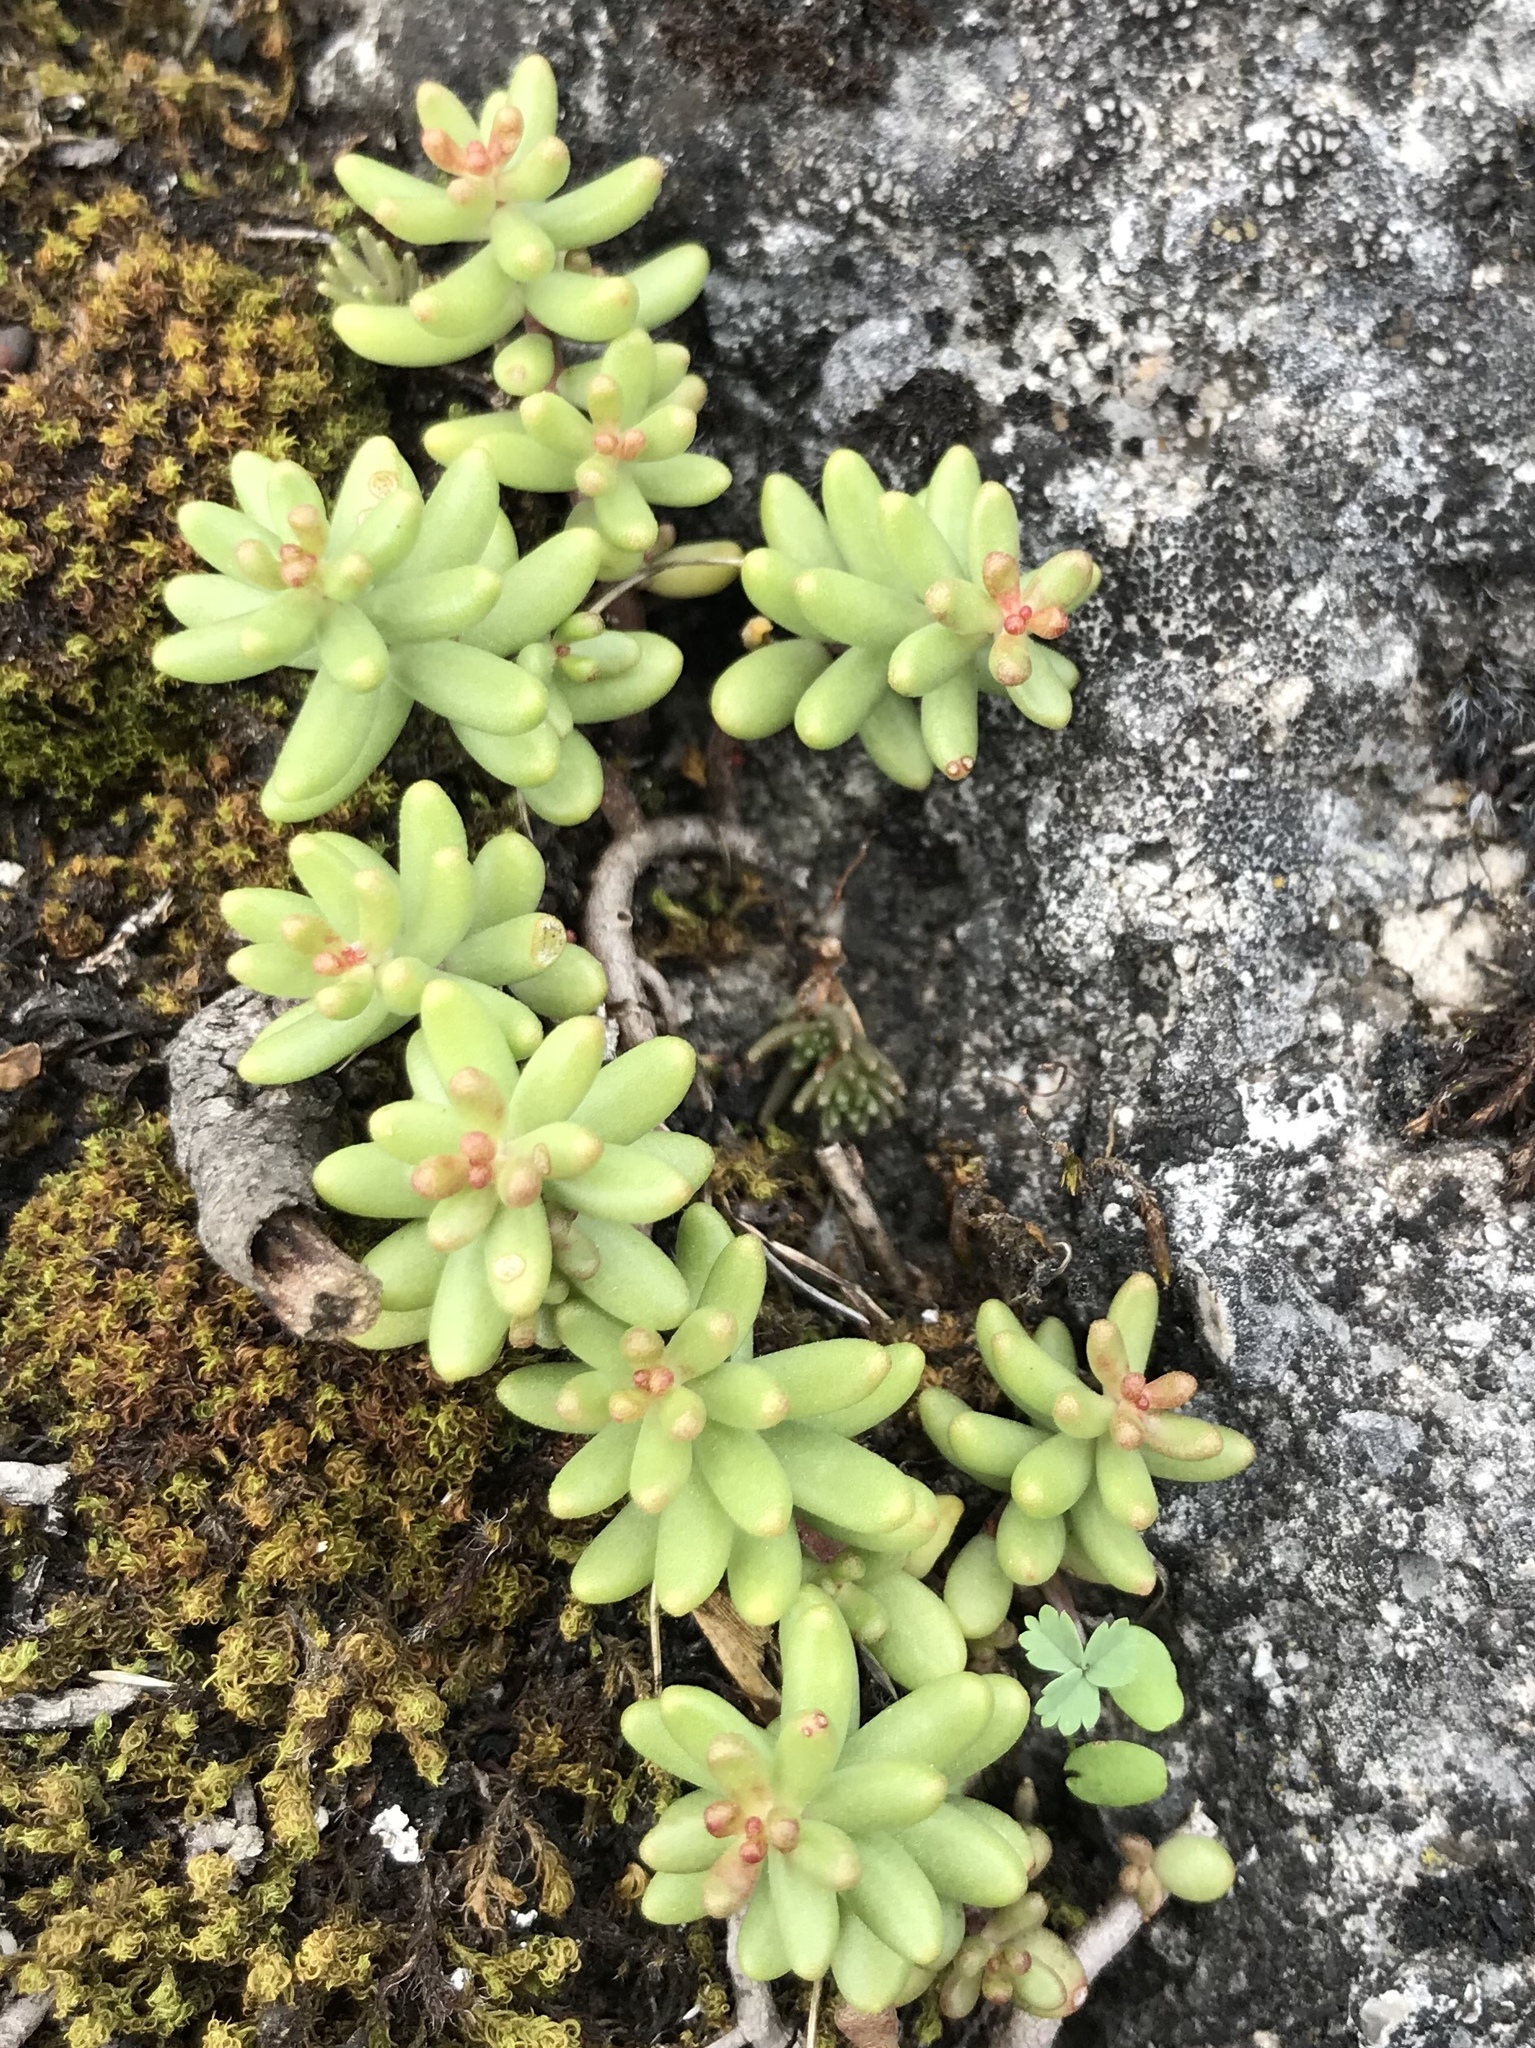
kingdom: Plantae
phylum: Tracheophyta
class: Magnoliopsida
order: Saxifragales
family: Crassulaceae
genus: Sedum
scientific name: Sedum album
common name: White stonecrop
